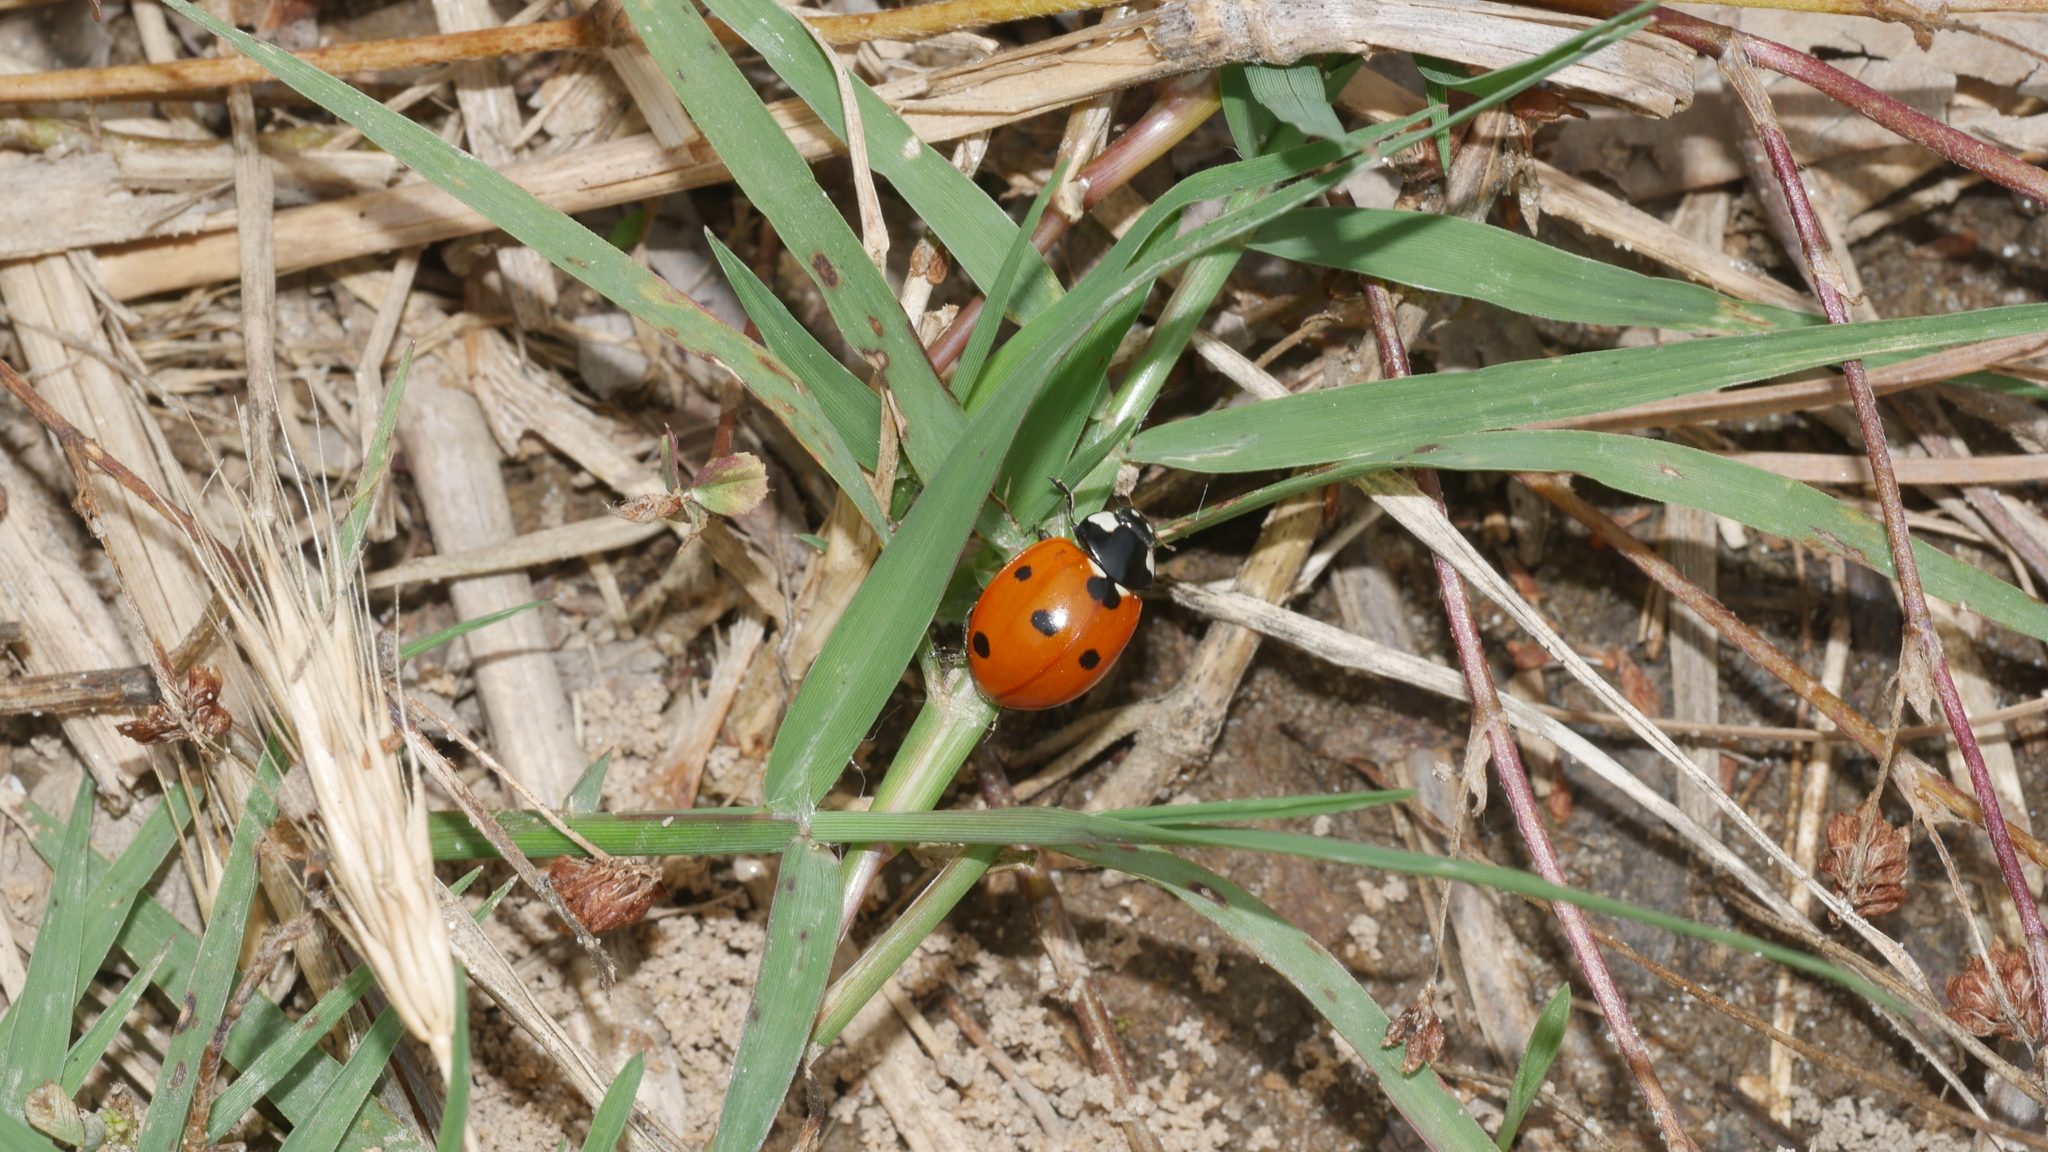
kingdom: Animalia
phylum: Arthropoda
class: Insecta
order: Coleoptera
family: Coccinellidae
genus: Coccinella
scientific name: Coccinella septempunctata
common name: Sevenspotted lady beetle
